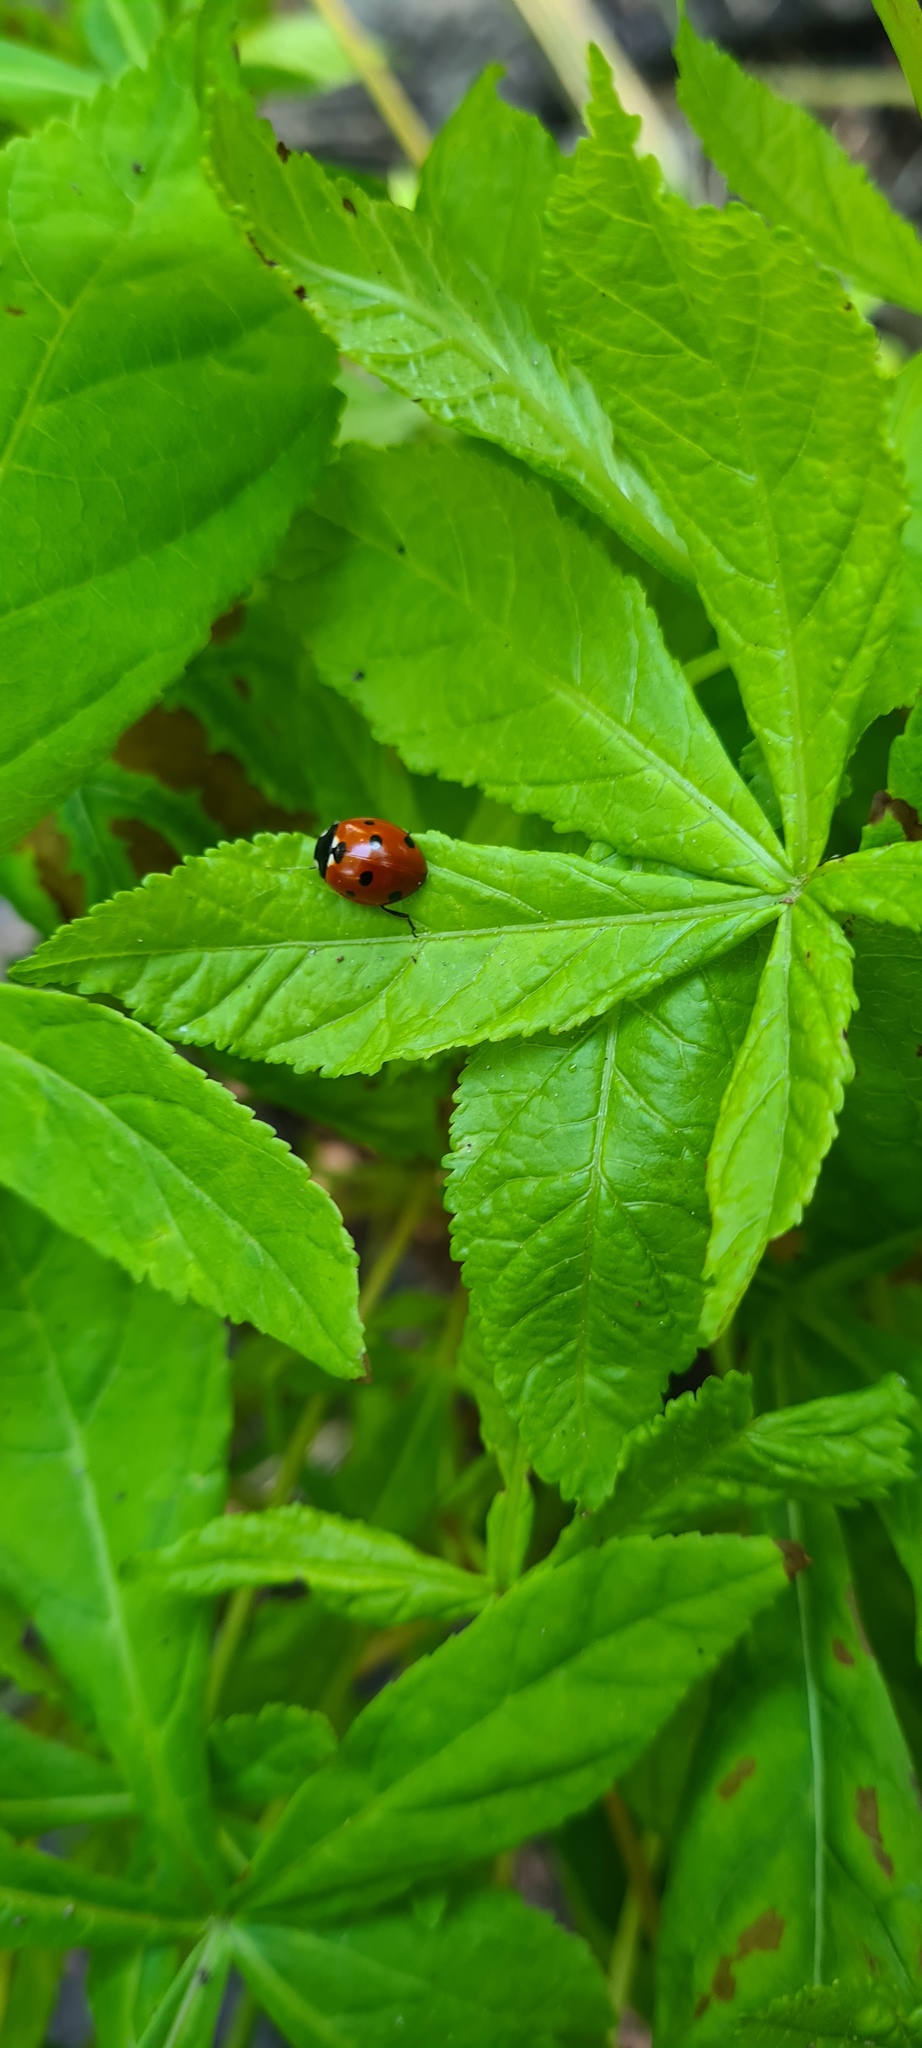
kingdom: Animalia
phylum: Arthropoda
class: Insecta
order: Coleoptera
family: Coccinellidae
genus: Coccinella
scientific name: Coccinella septempunctata
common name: Sevenspotted lady beetle
